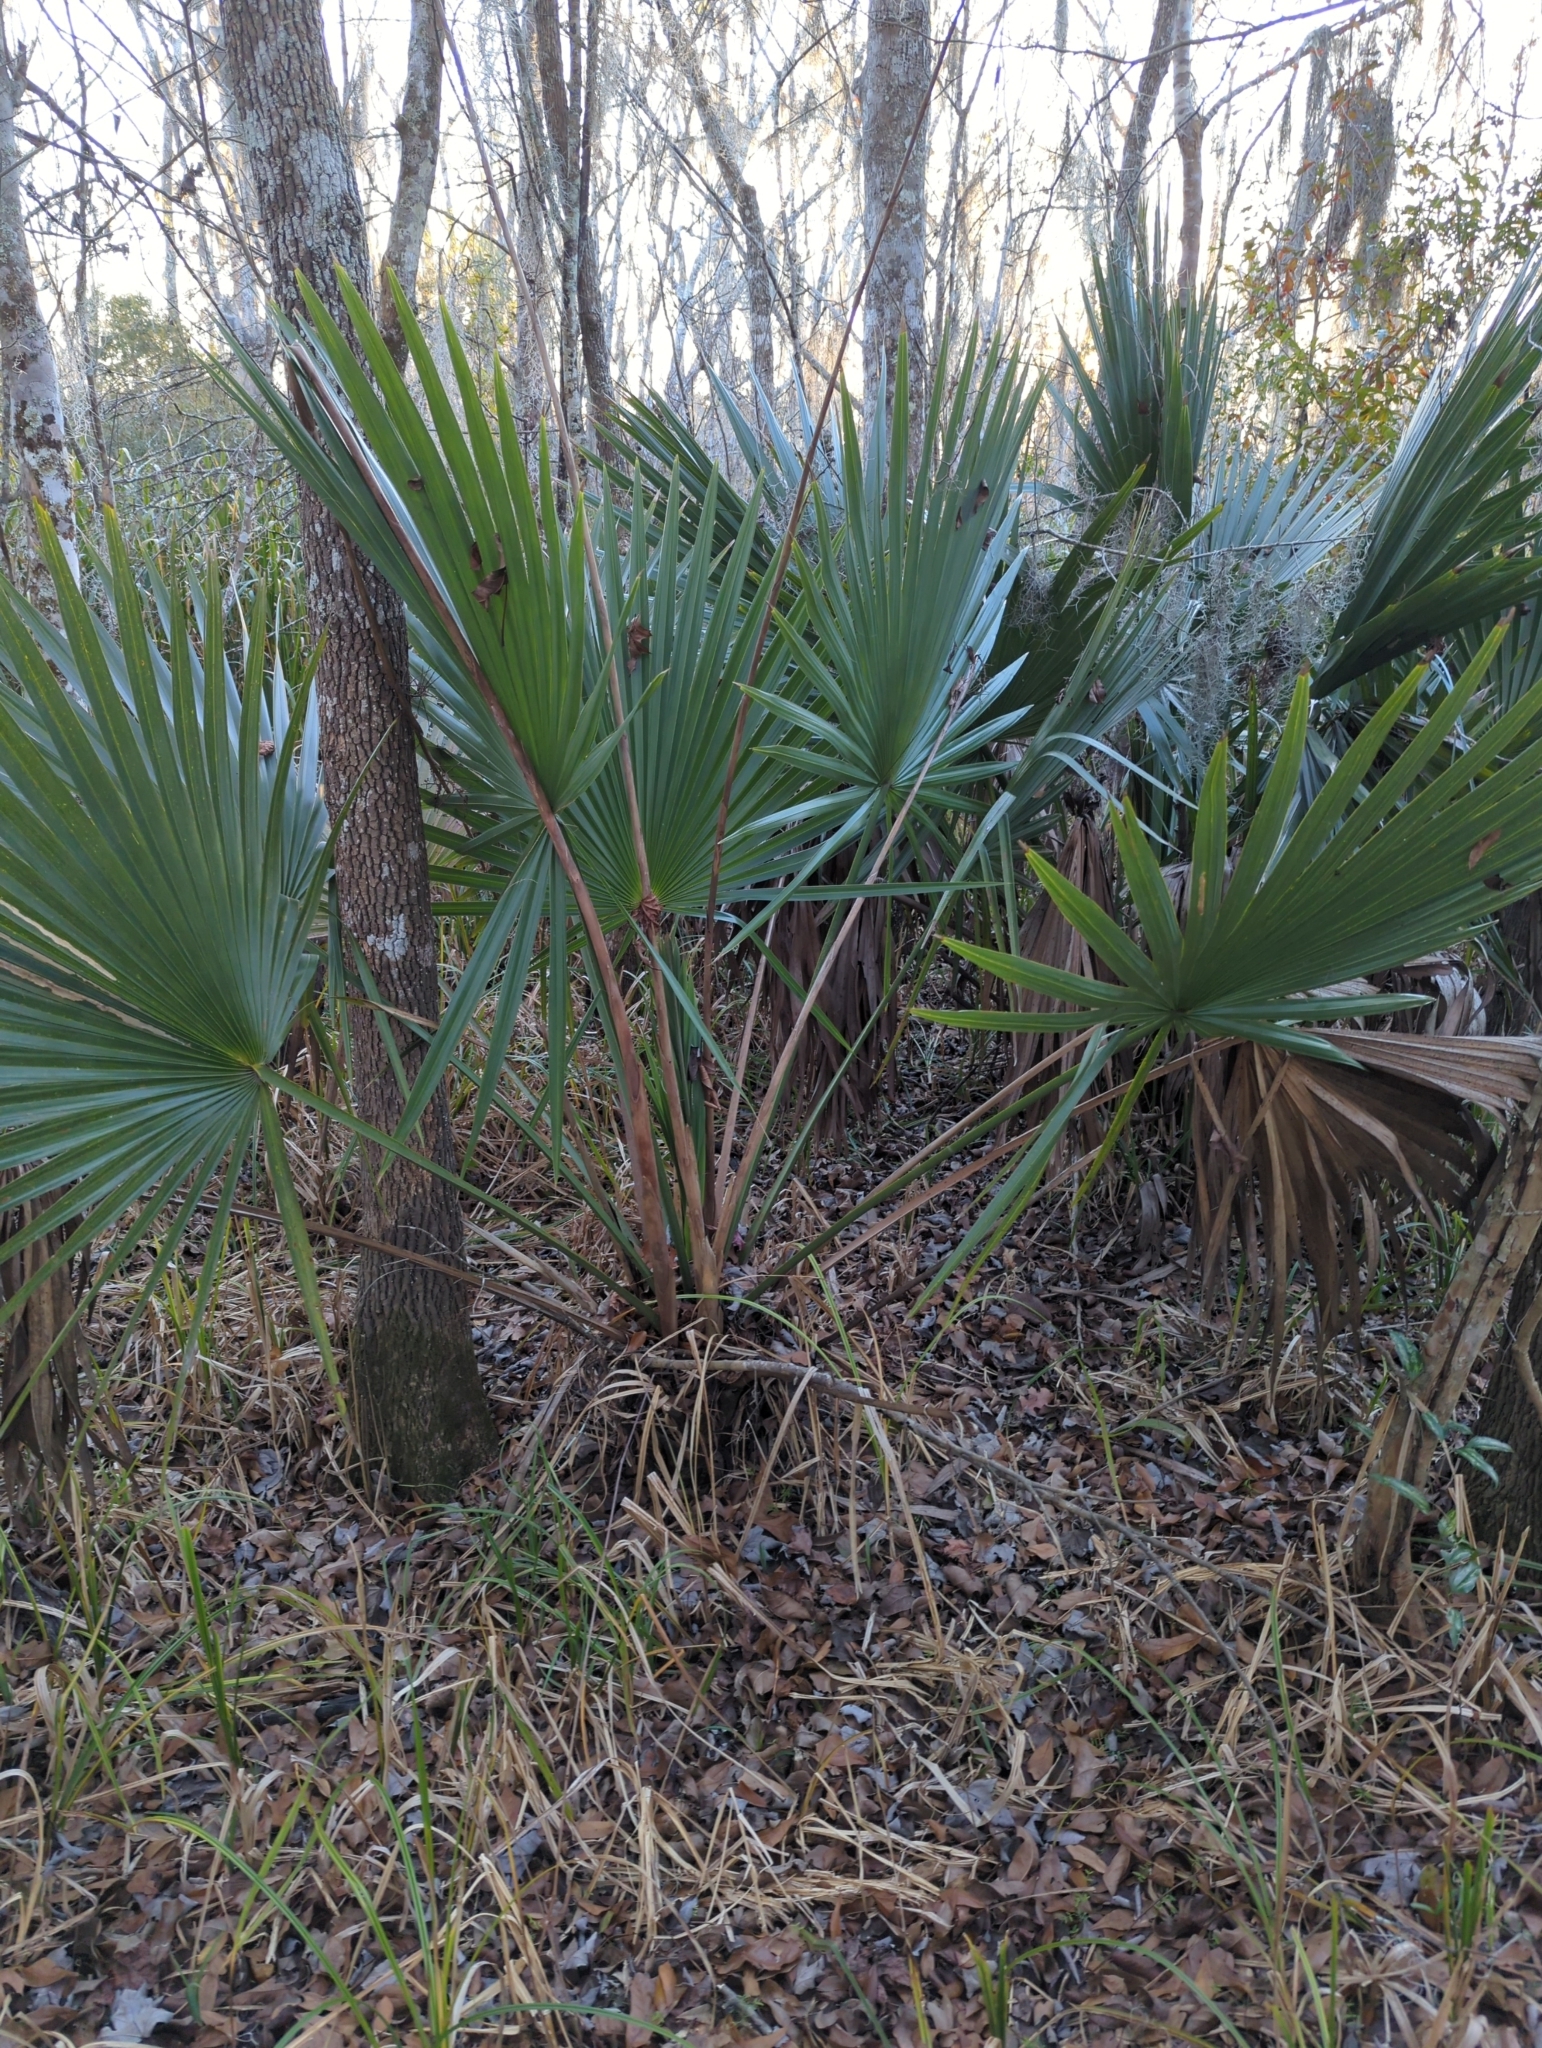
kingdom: Plantae
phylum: Tracheophyta
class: Liliopsida
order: Arecales
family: Arecaceae
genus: Sabal
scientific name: Sabal minor
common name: Dwarf palmetto
